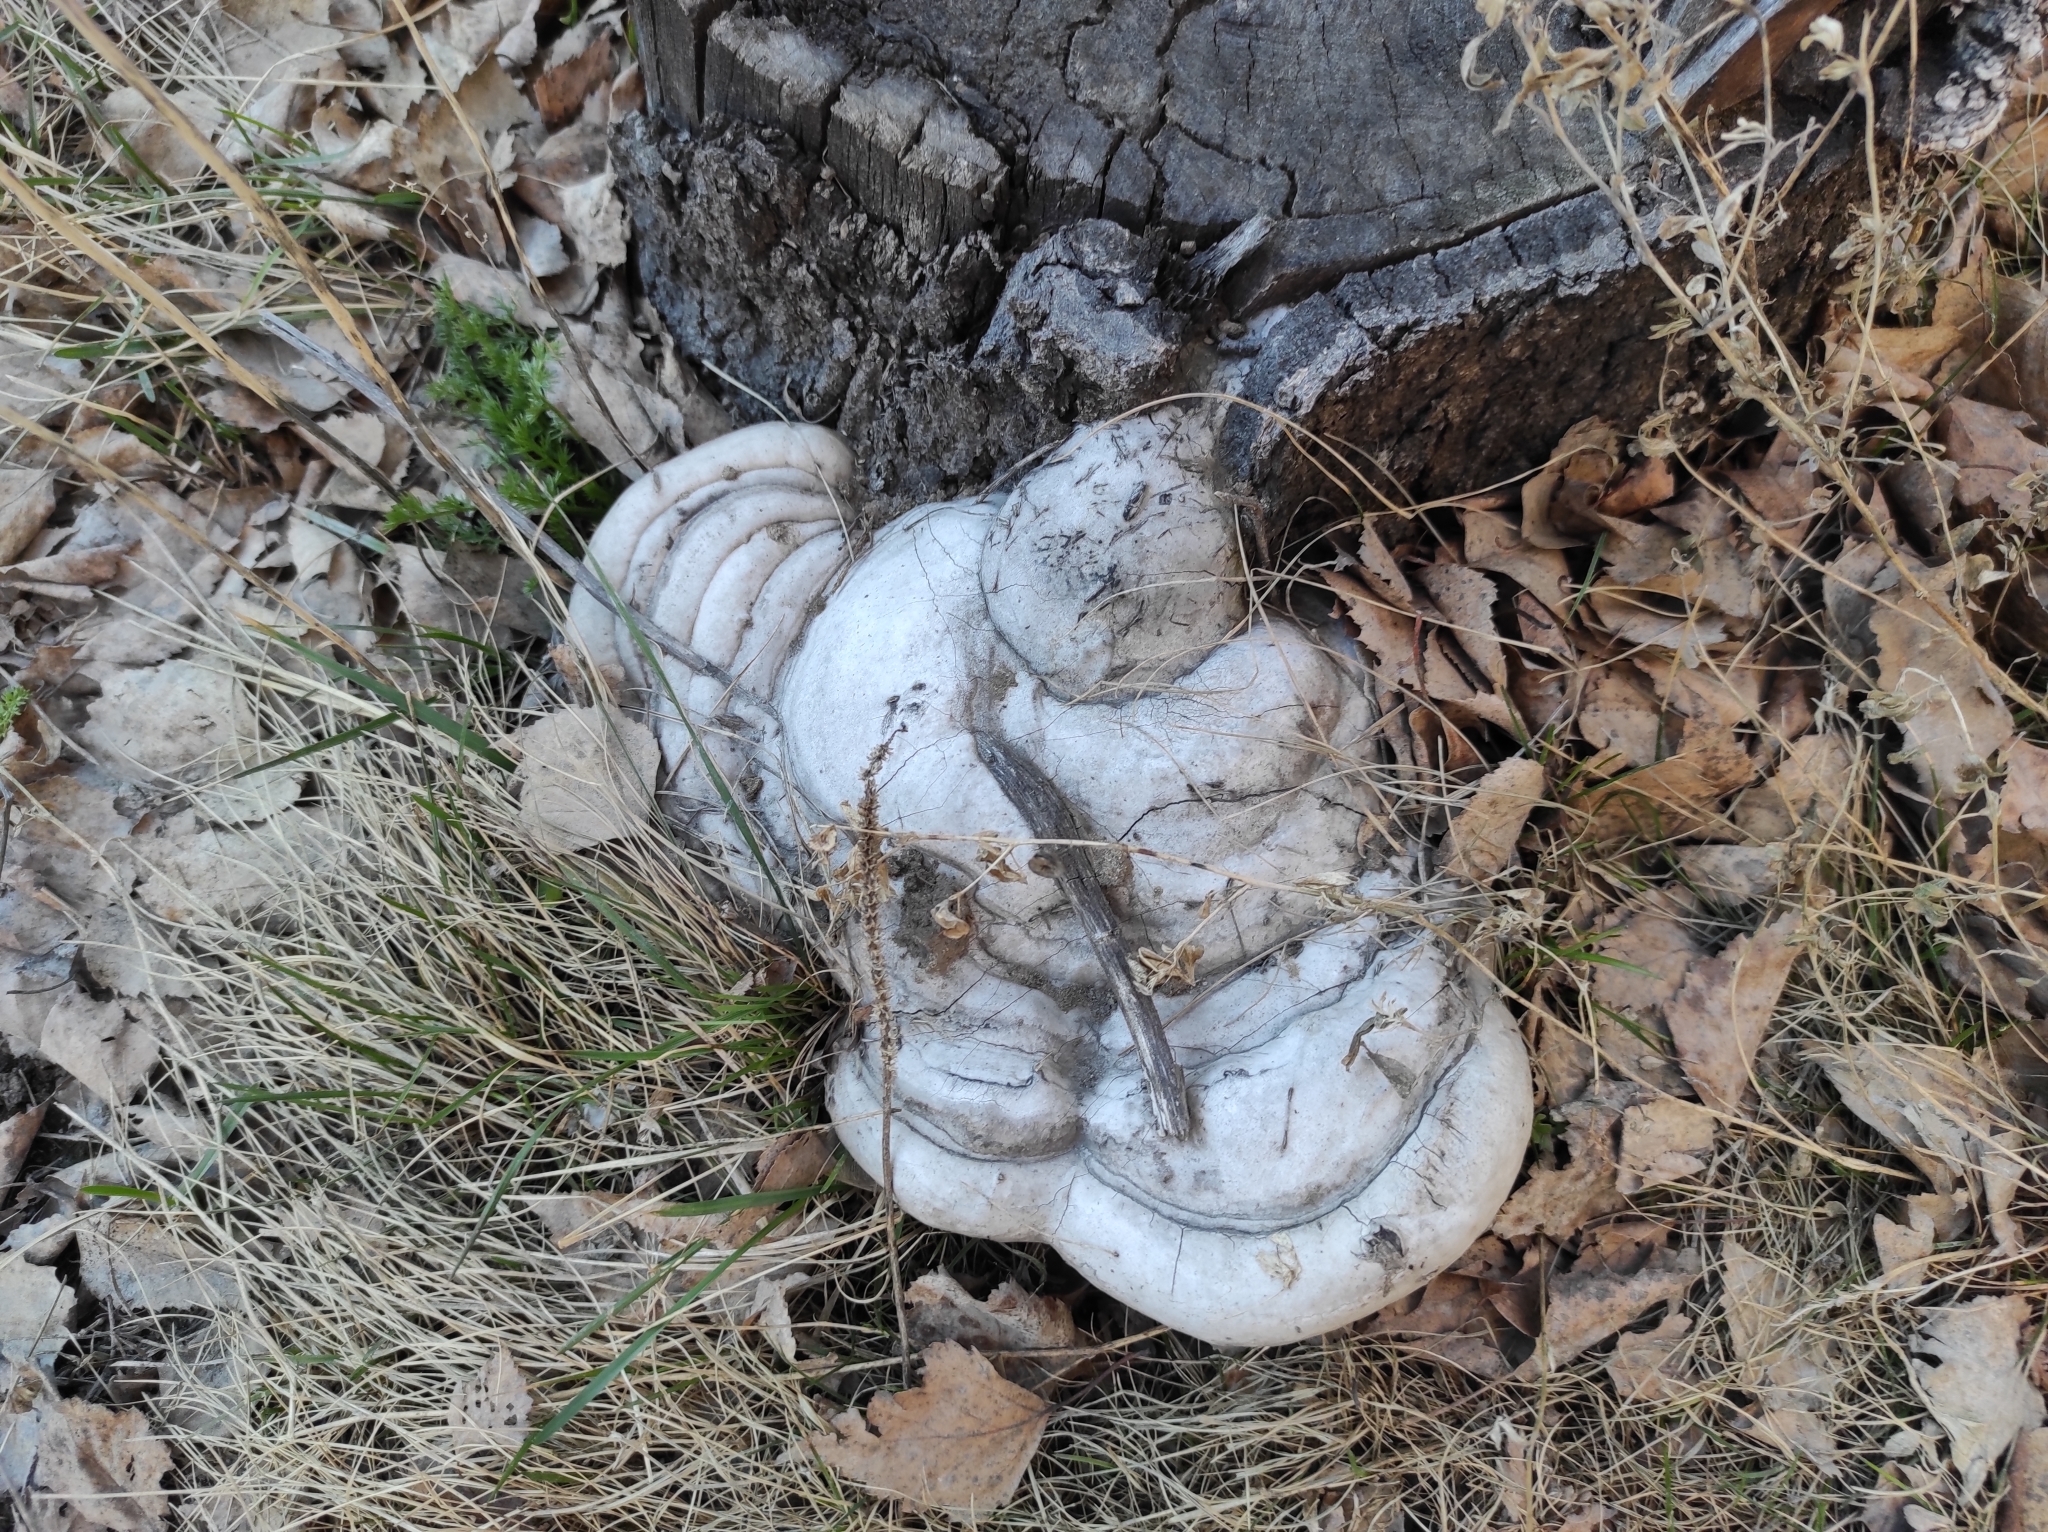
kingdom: Fungi
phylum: Basidiomycota
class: Agaricomycetes
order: Polyporales
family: Polyporaceae
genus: Fomes
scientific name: Fomes fomentarius
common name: Hoof fungus
